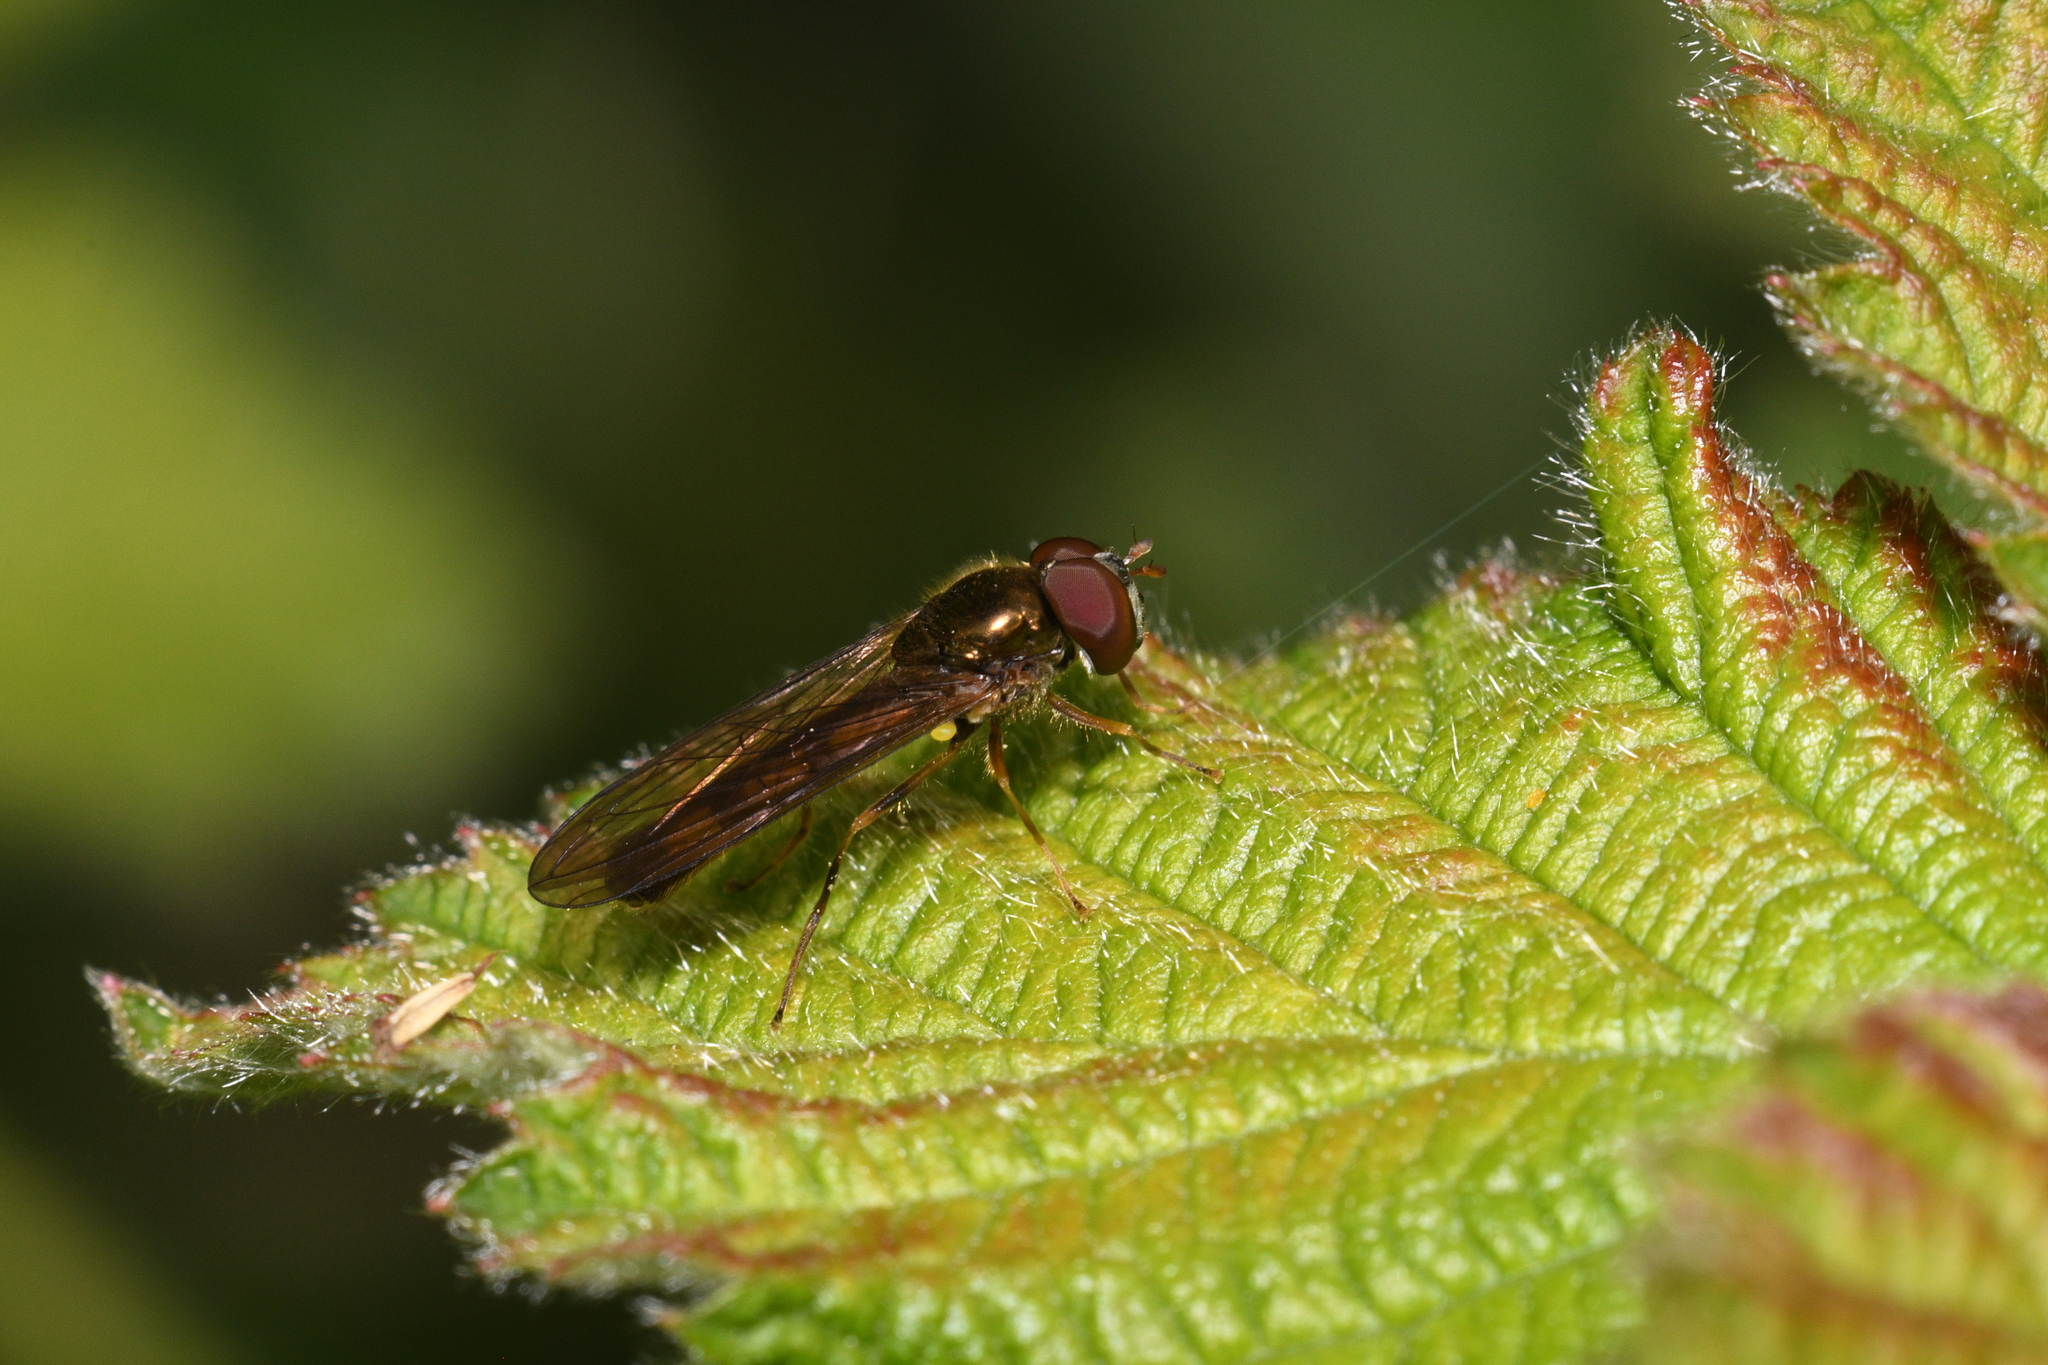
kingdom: Animalia
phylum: Arthropoda
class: Insecta
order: Diptera
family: Syrphidae
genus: Melanostoma
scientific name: Melanostoma scalare
